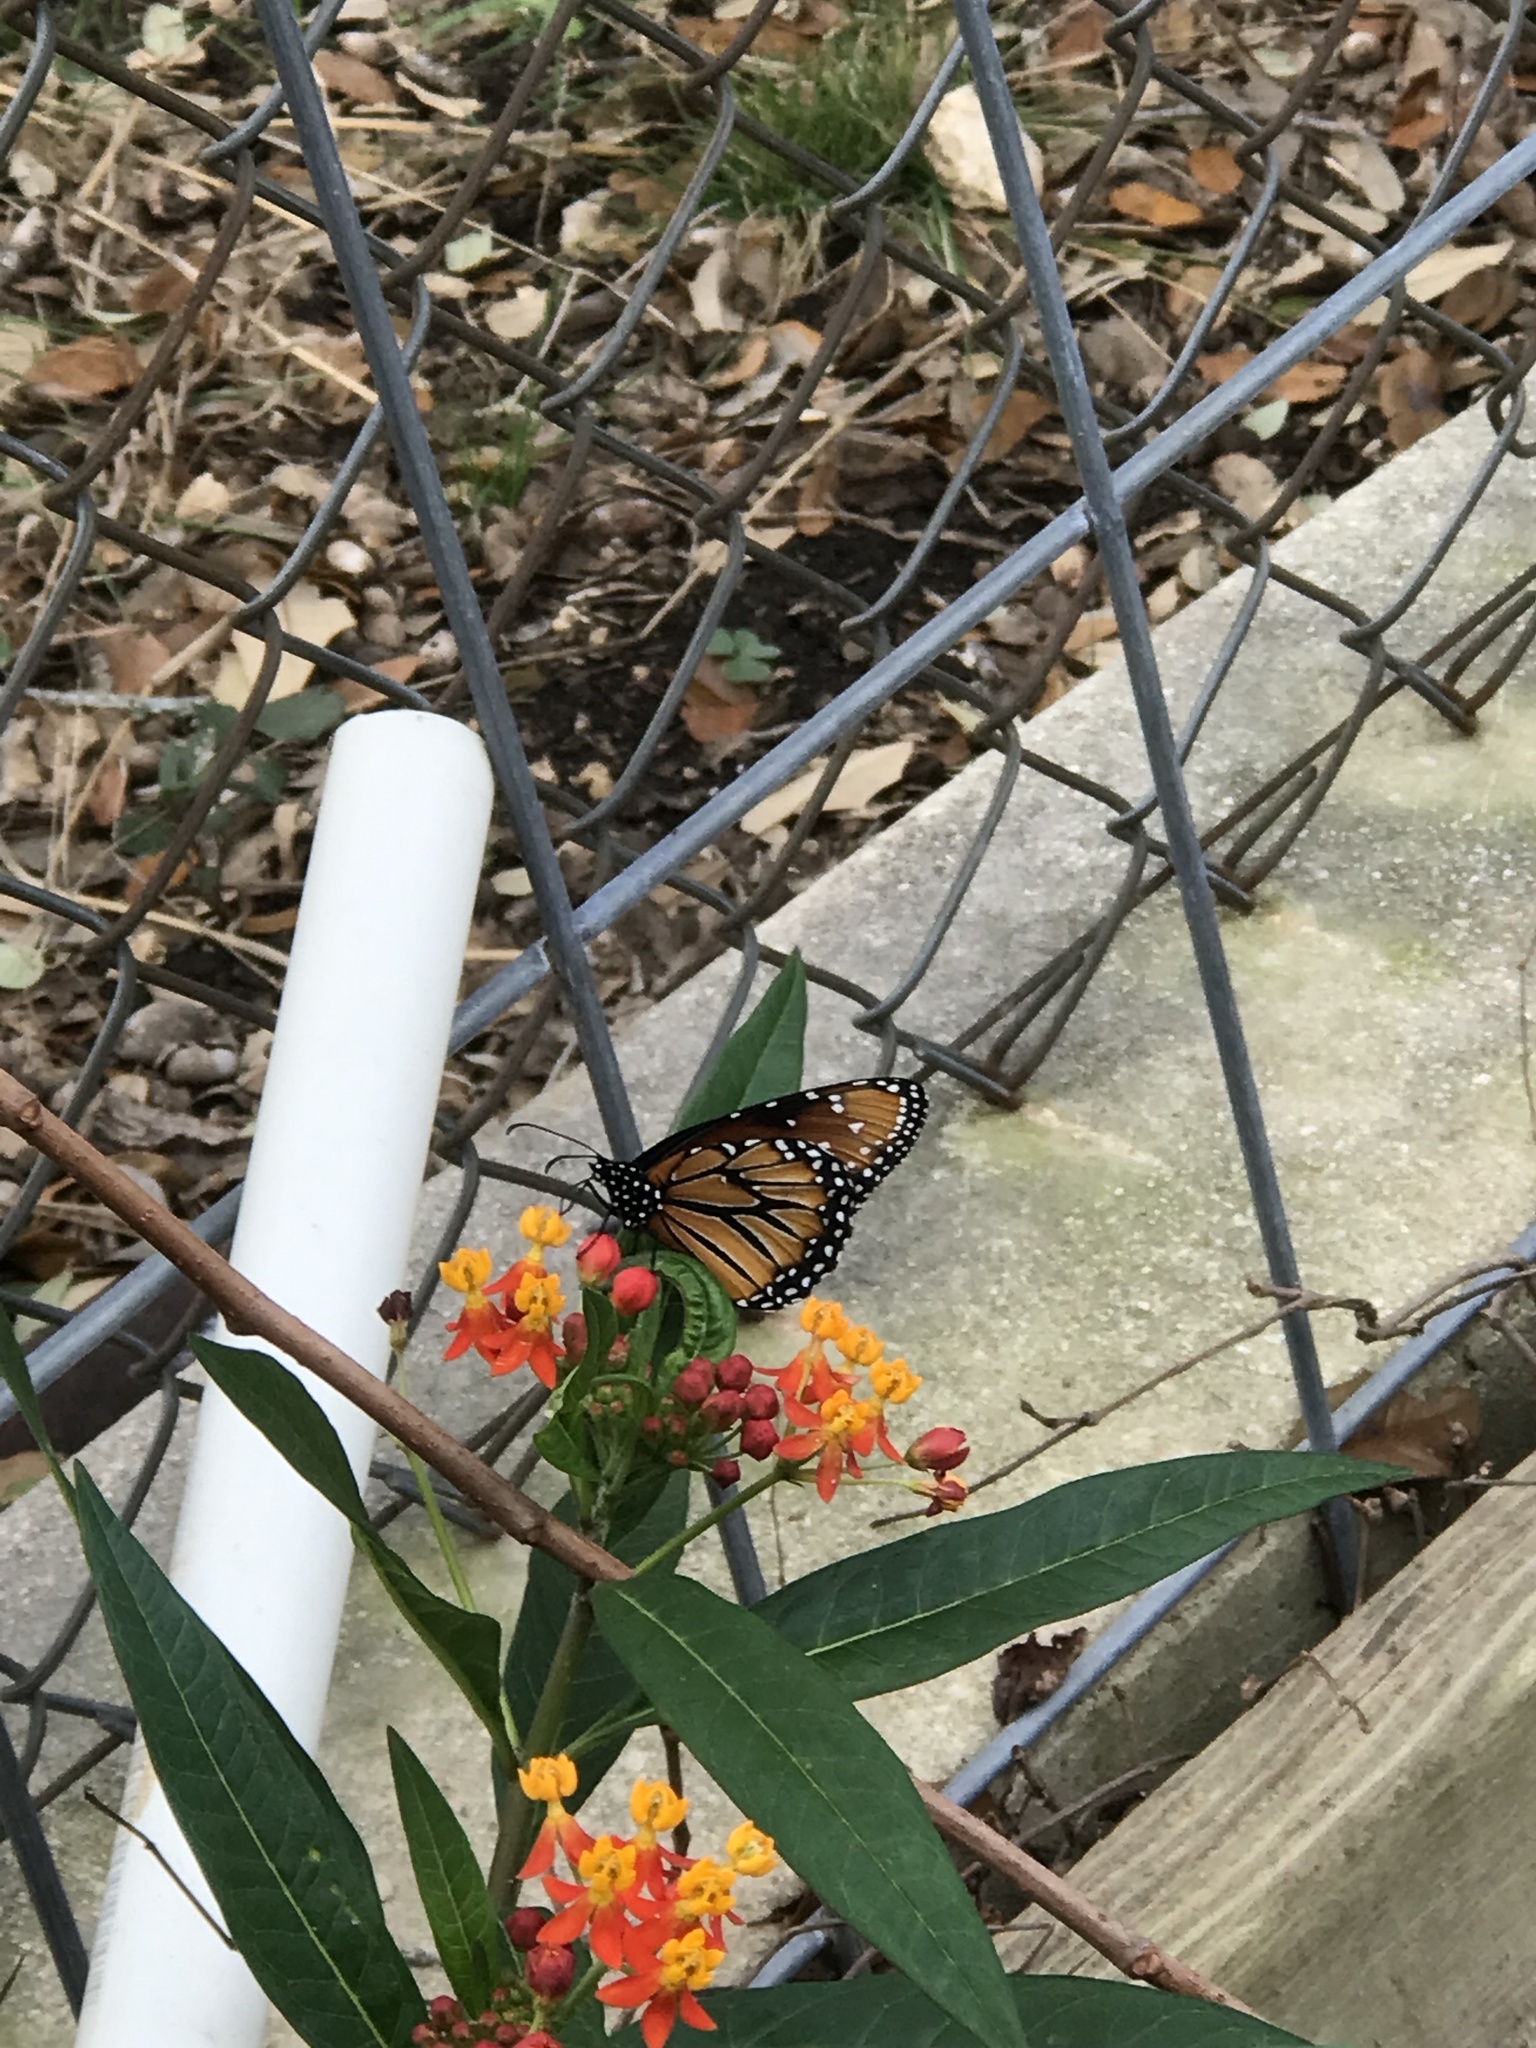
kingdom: Animalia
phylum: Arthropoda
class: Insecta
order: Lepidoptera
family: Nymphalidae
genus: Danaus
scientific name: Danaus gilippus
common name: Queen
